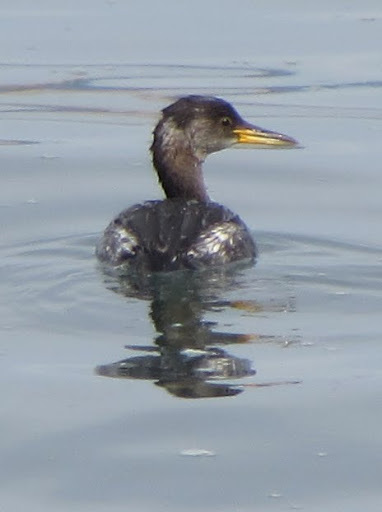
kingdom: Animalia
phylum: Chordata
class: Aves
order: Podicipediformes
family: Podicipedidae
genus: Podiceps
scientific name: Podiceps grisegena
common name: Red-necked grebe
